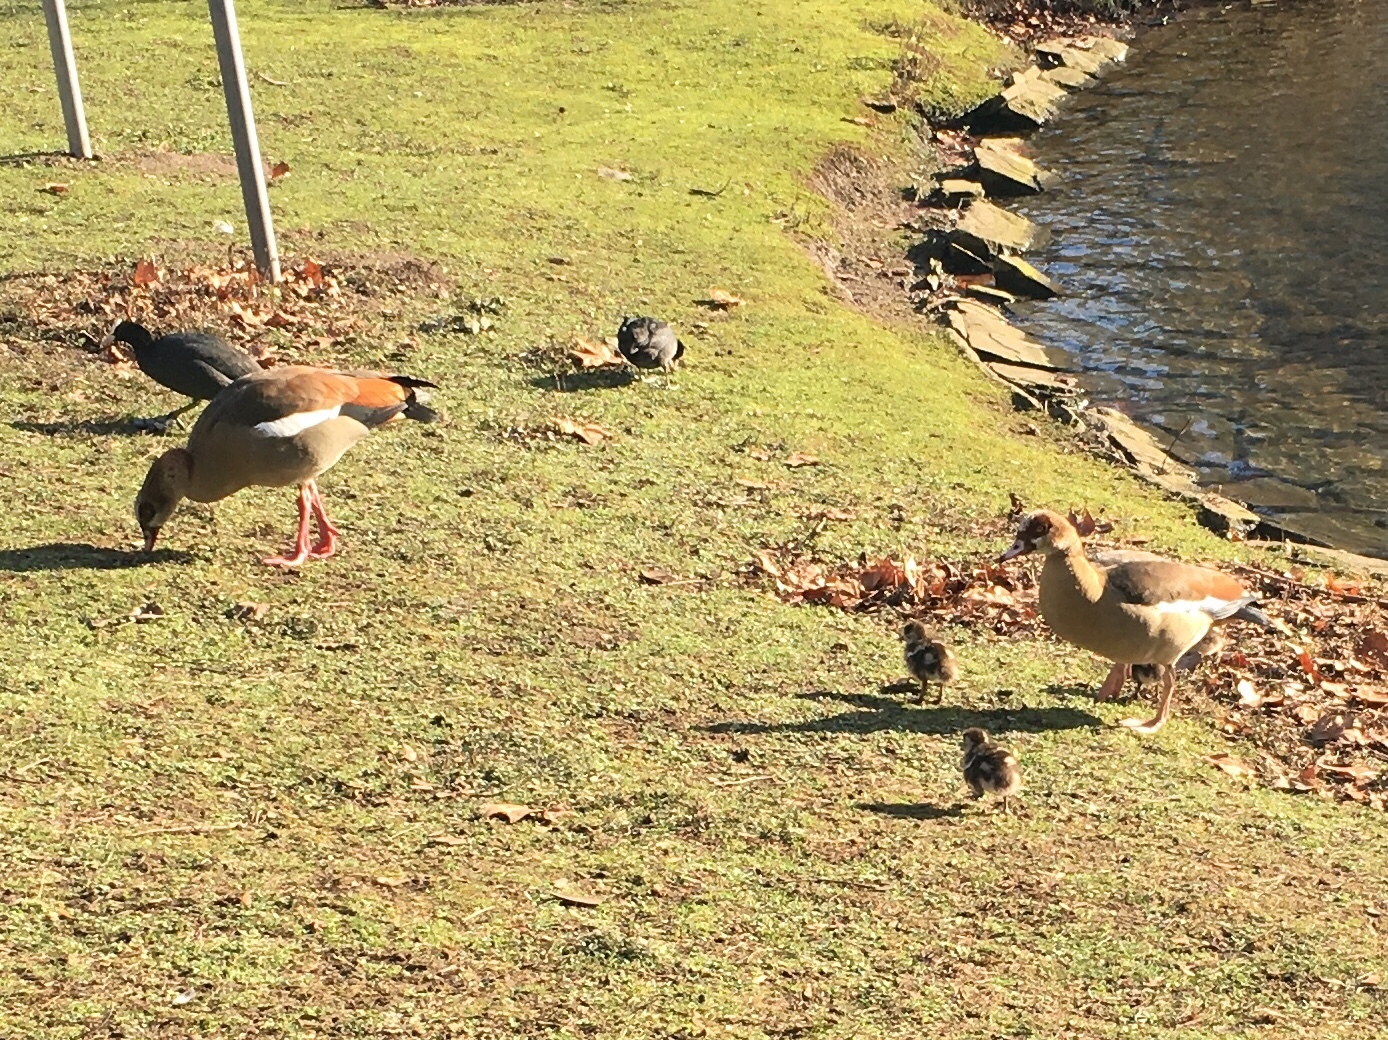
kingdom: Animalia
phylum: Chordata
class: Aves
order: Anseriformes
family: Anatidae
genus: Alopochen
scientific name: Alopochen aegyptiaca
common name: Egyptian goose
